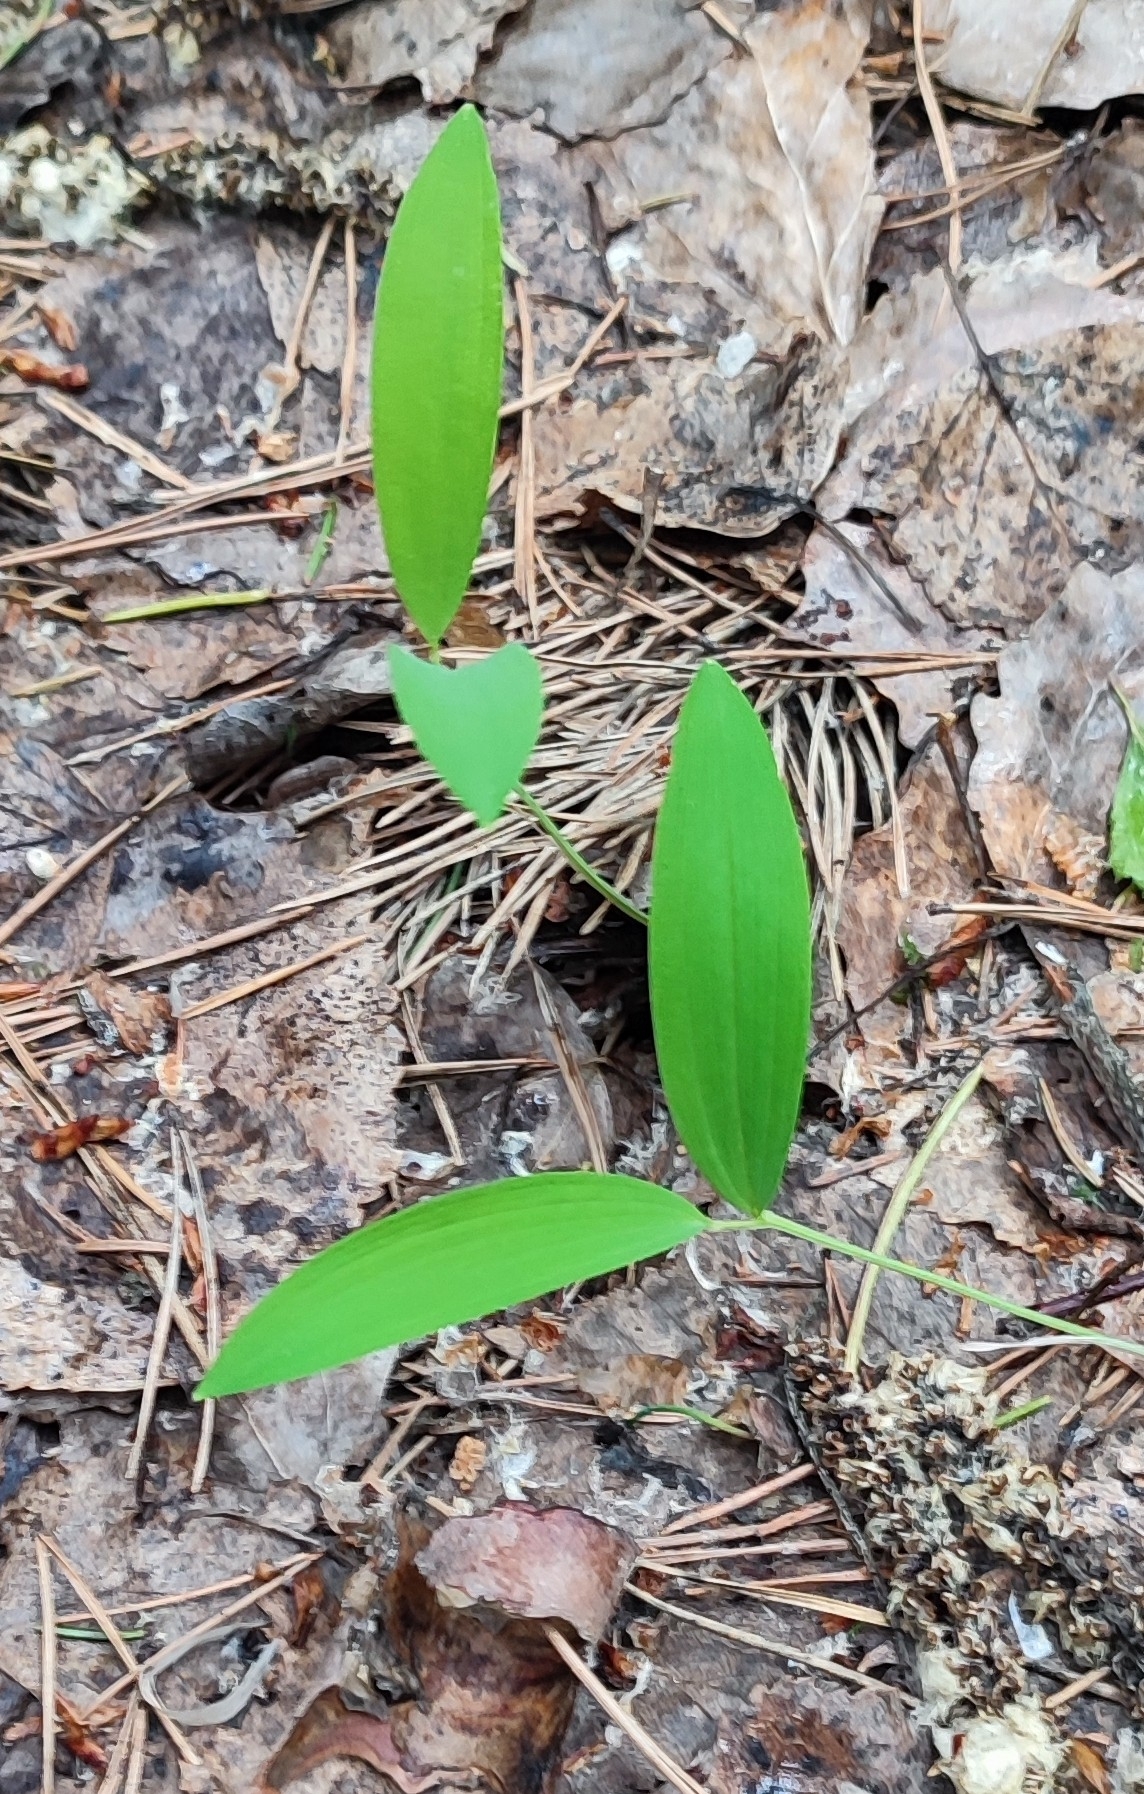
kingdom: Plantae
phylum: Tracheophyta
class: Liliopsida
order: Asparagales
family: Asparagaceae
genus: Polygonatum
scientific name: Polygonatum odoratum
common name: Angular solomon's-seal
